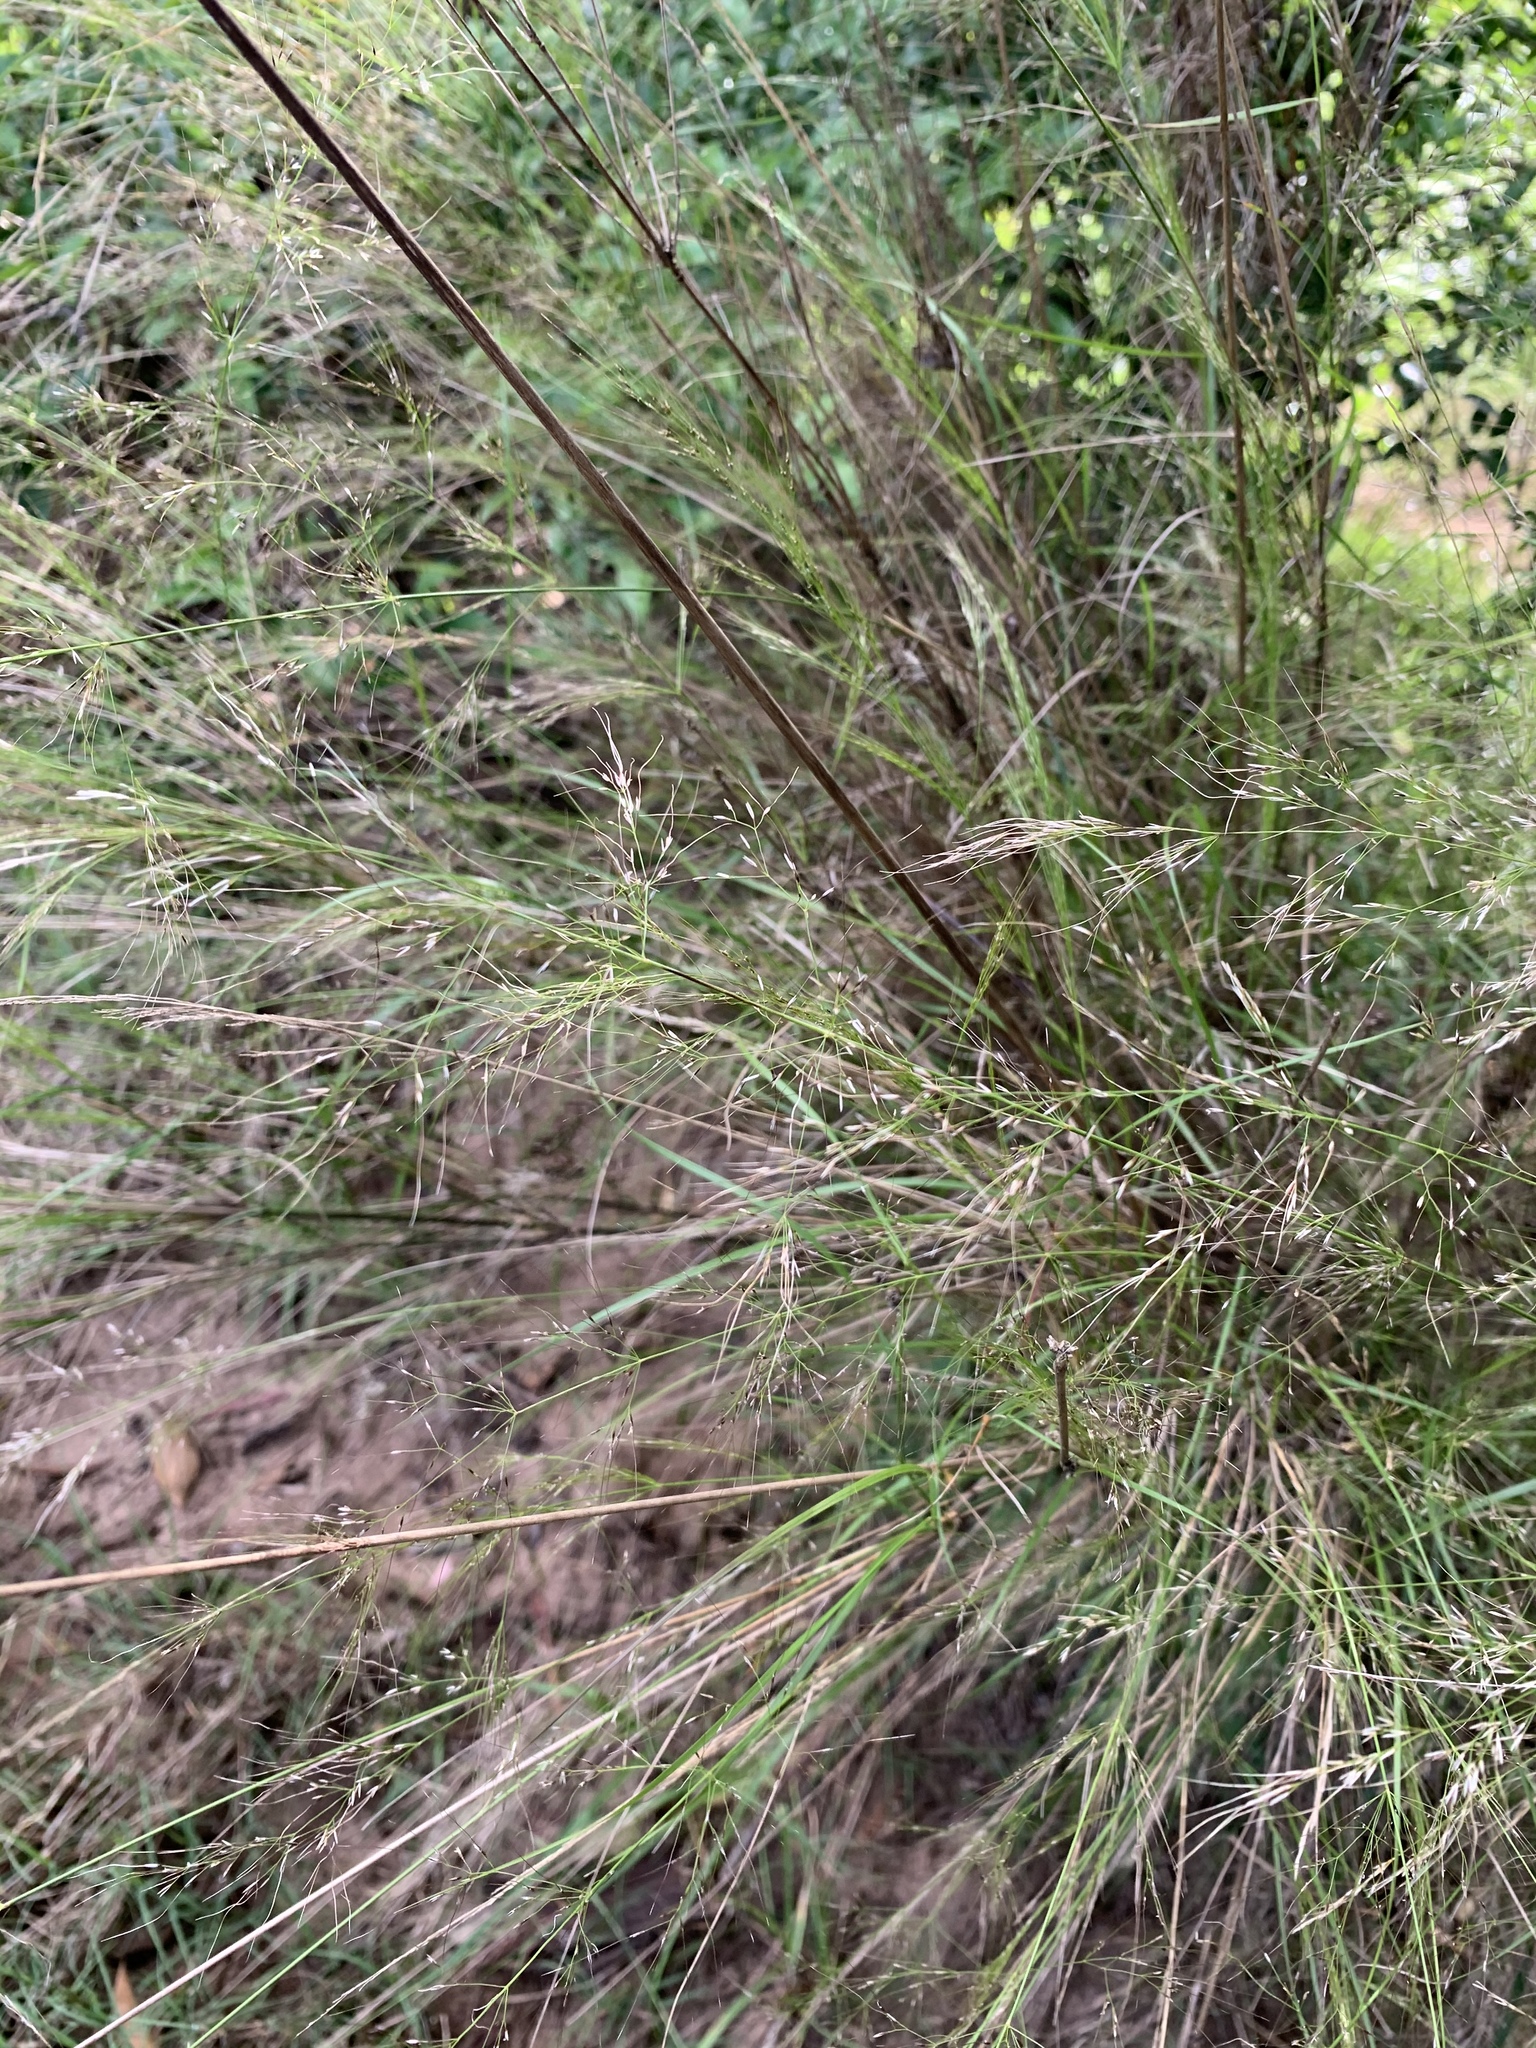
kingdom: Plantae
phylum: Tracheophyta
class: Liliopsida
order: Poales
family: Poaceae
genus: Austrostipa
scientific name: Austrostipa ramosissima
